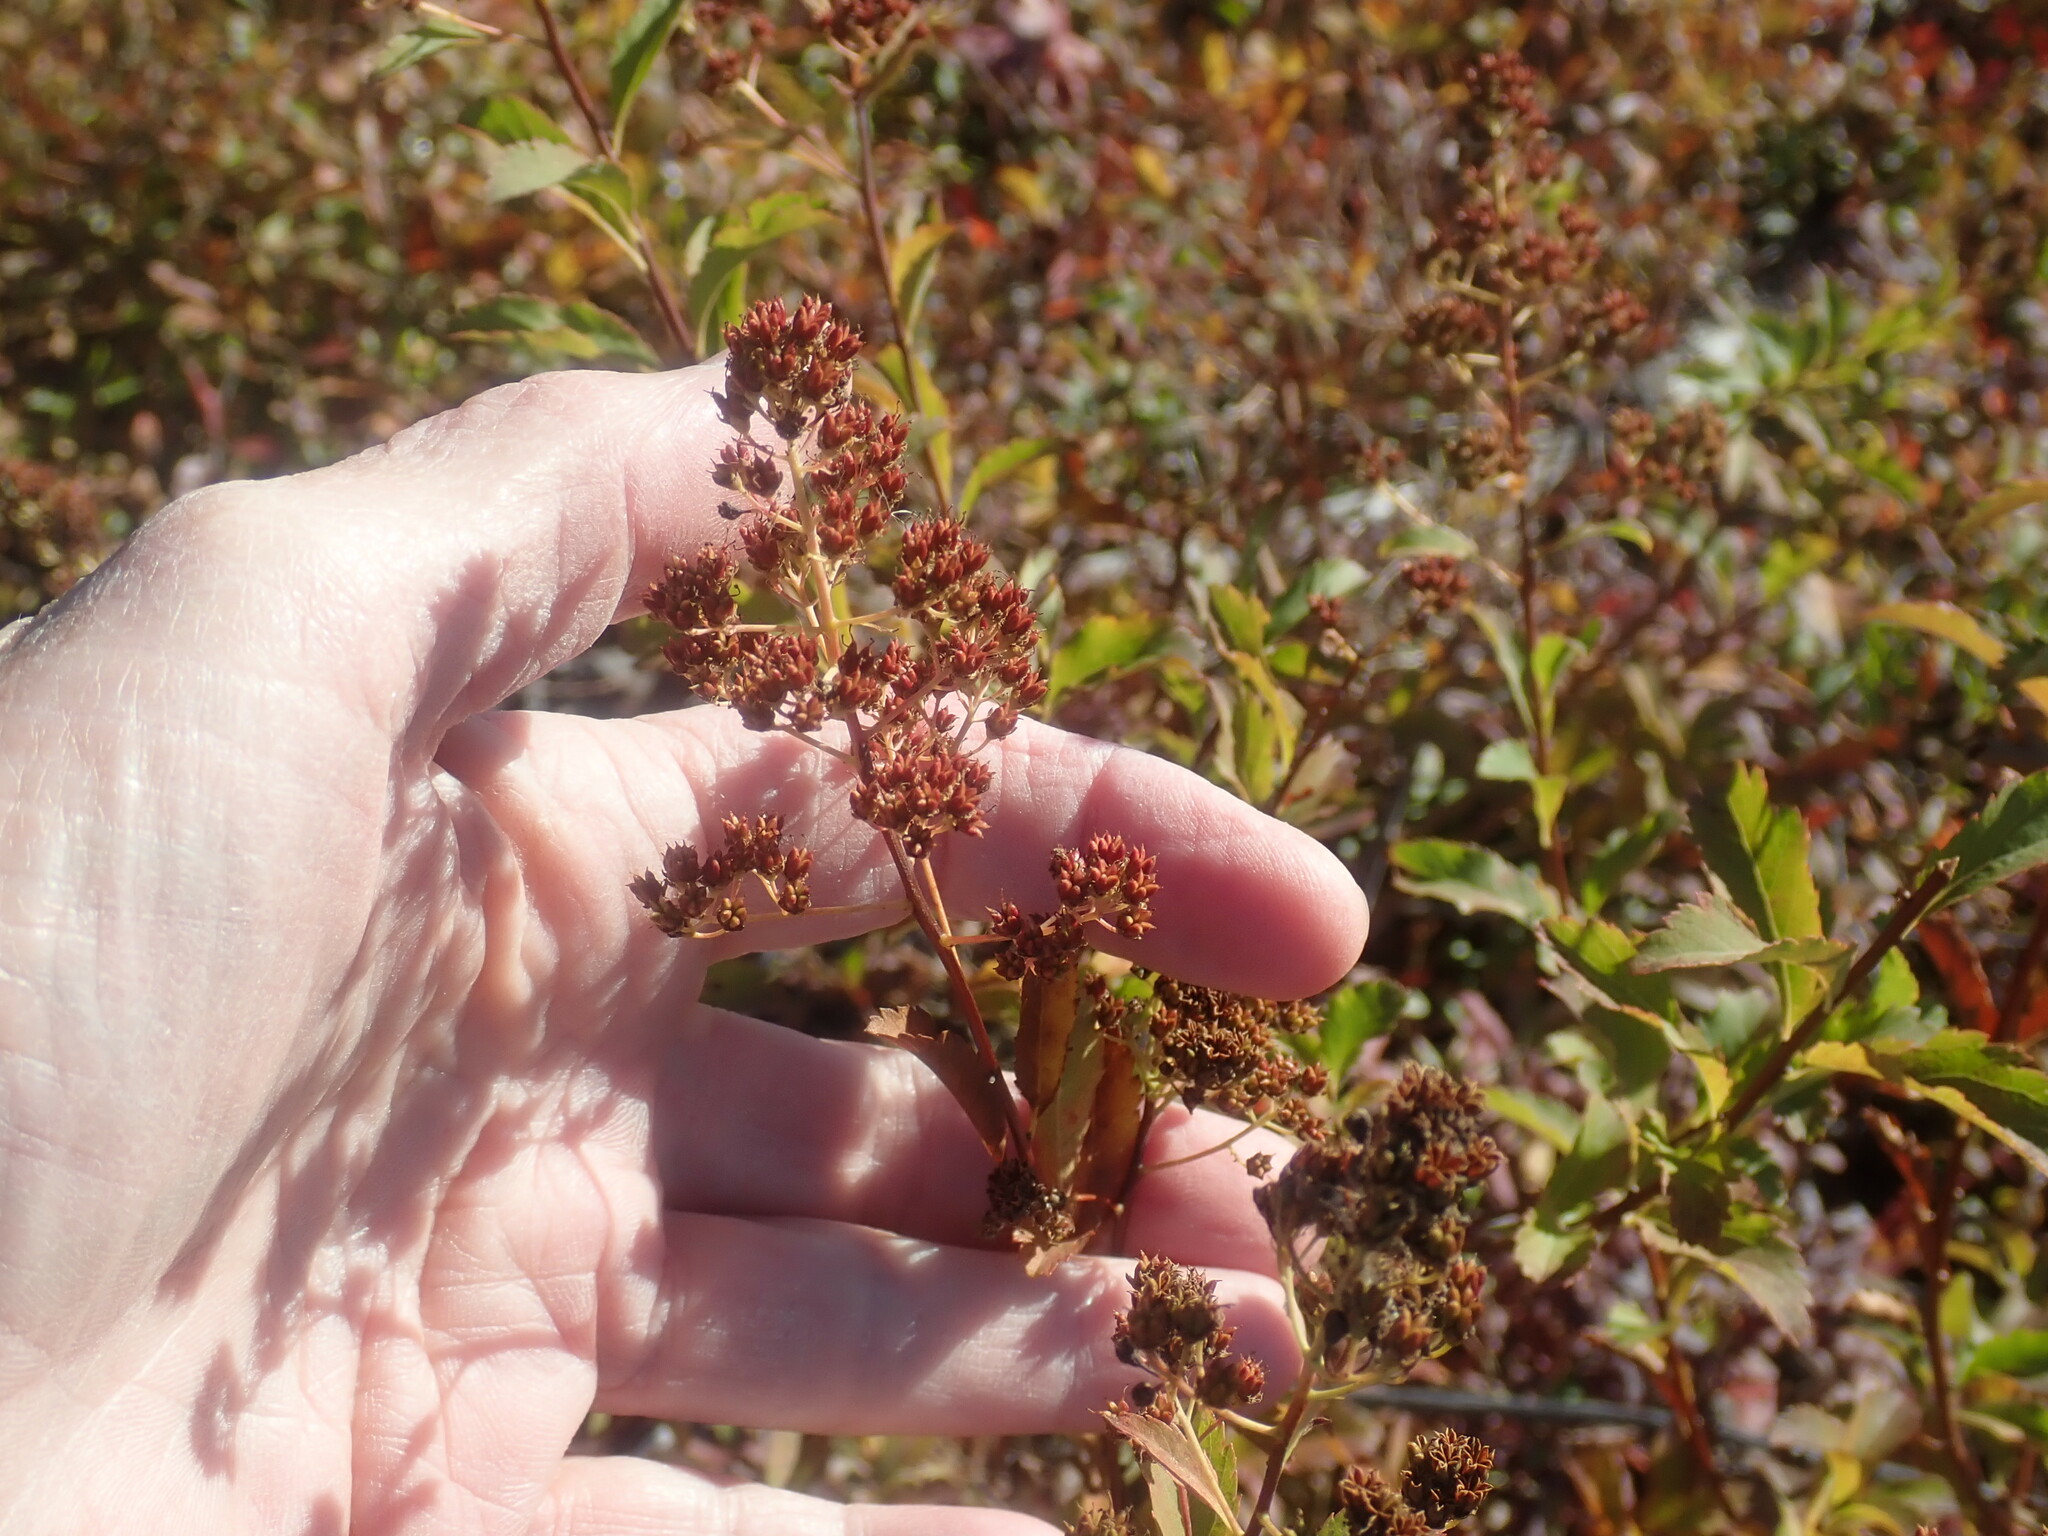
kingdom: Plantae
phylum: Tracheophyta
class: Magnoliopsida
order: Rosales
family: Rosaceae
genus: Spiraea
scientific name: Spiraea alba
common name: Pale bridewort
